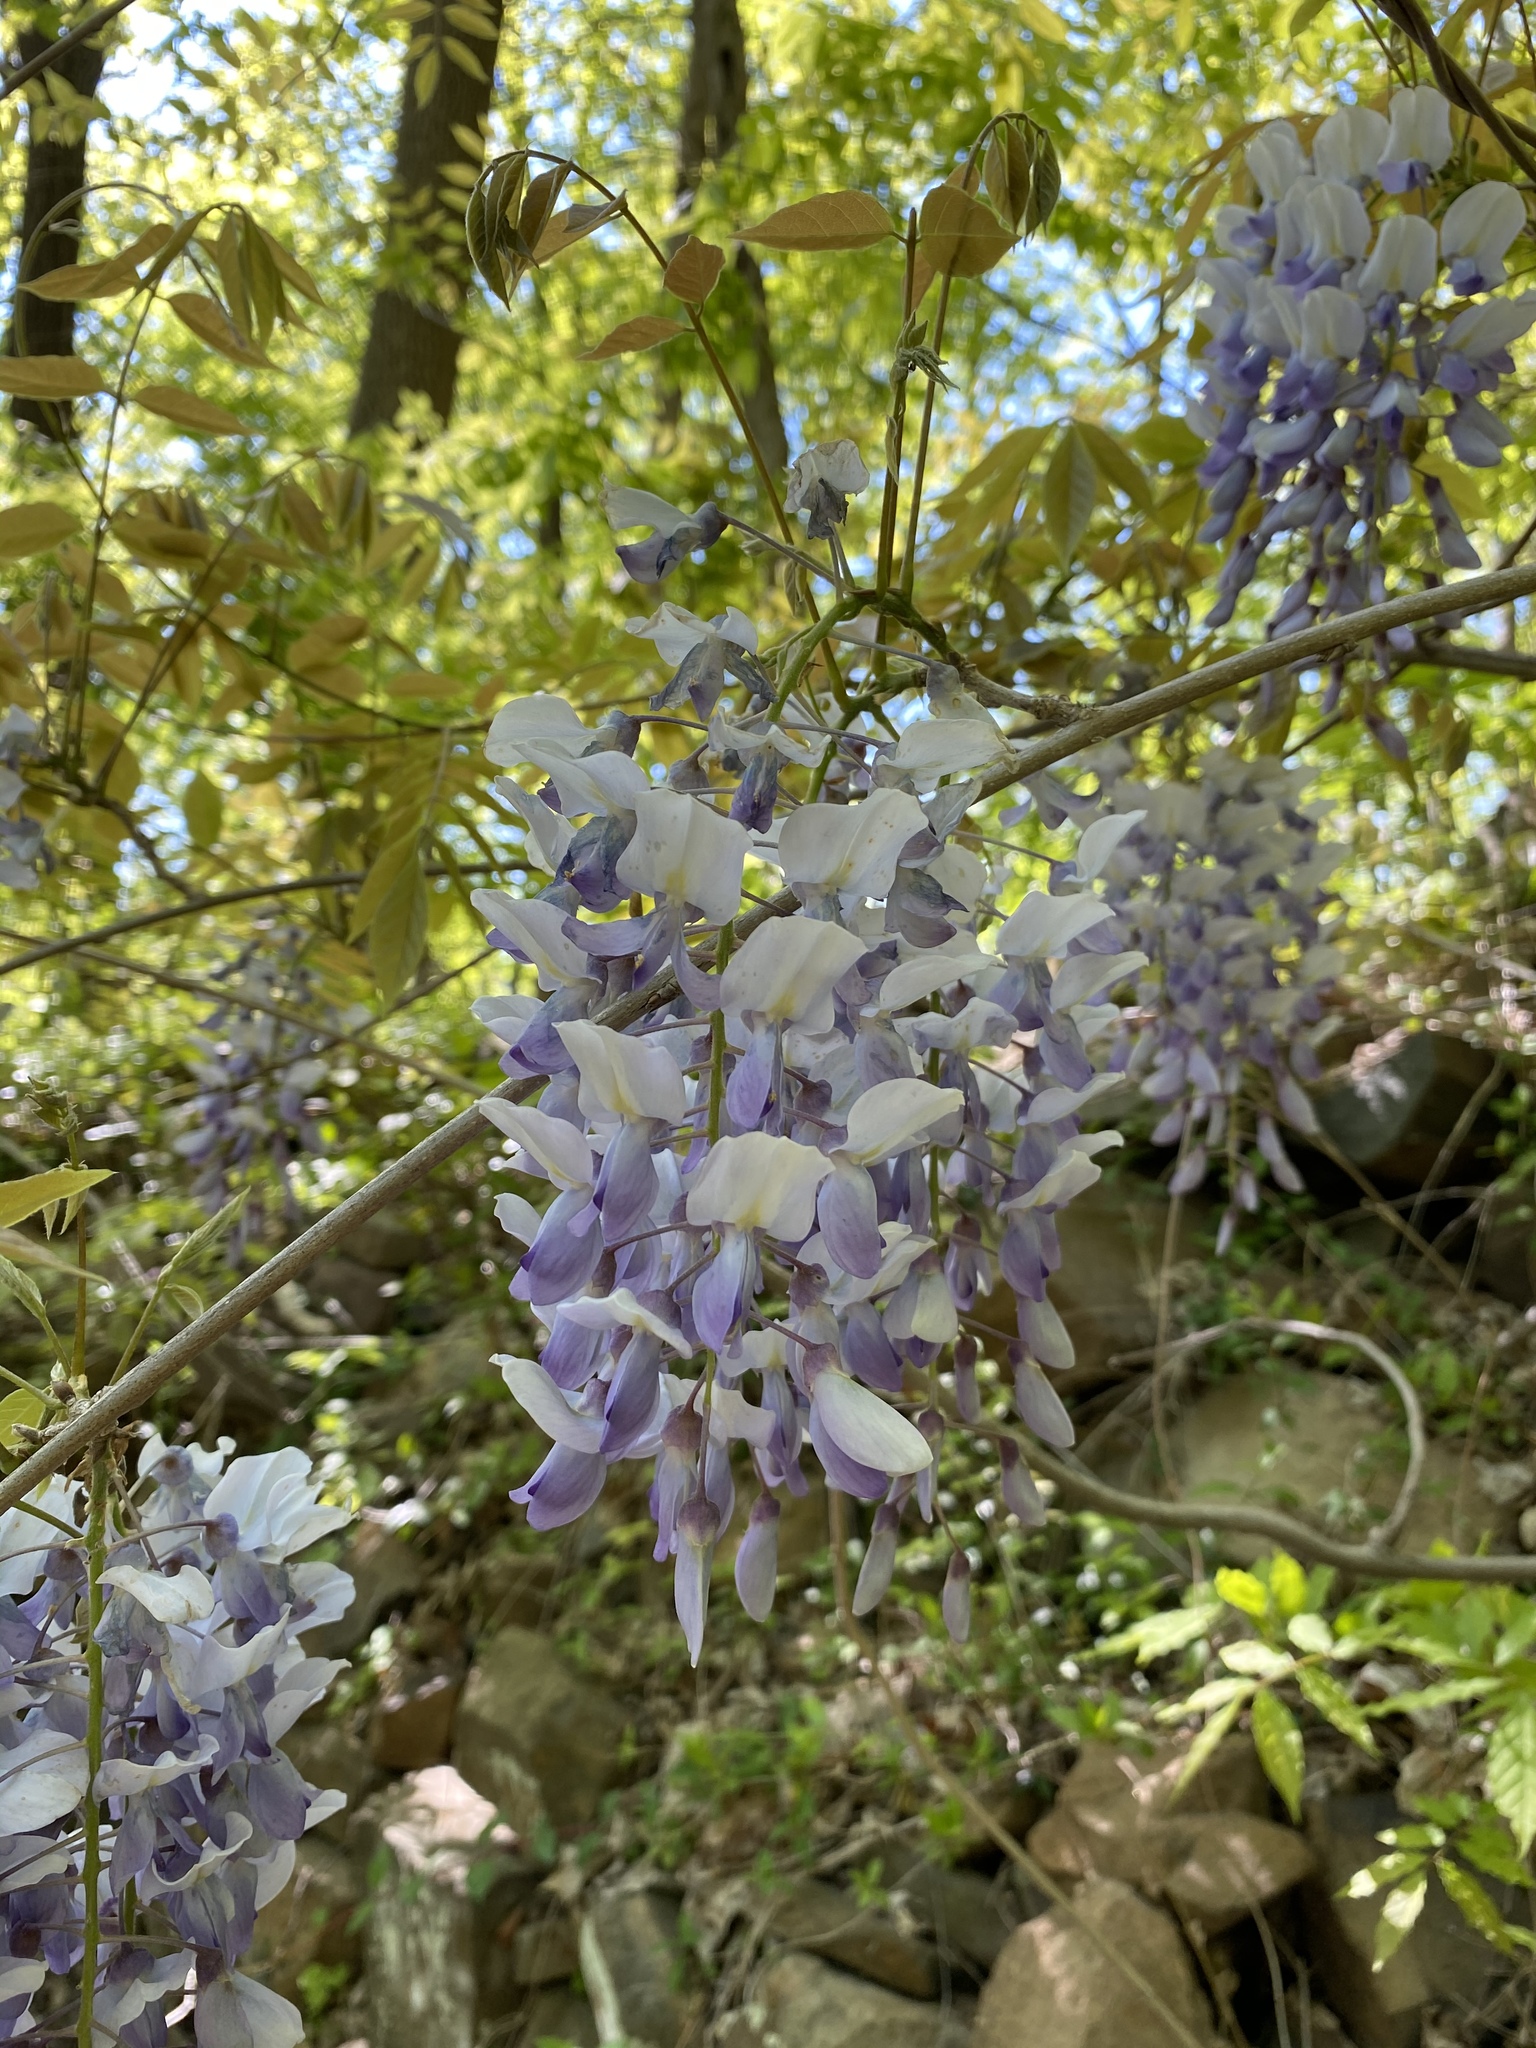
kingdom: Plantae
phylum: Tracheophyta
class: Magnoliopsida
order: Fabales
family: Fabaceae
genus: Wisteria
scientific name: Wisteria sinensis
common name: Chinese wisteria
